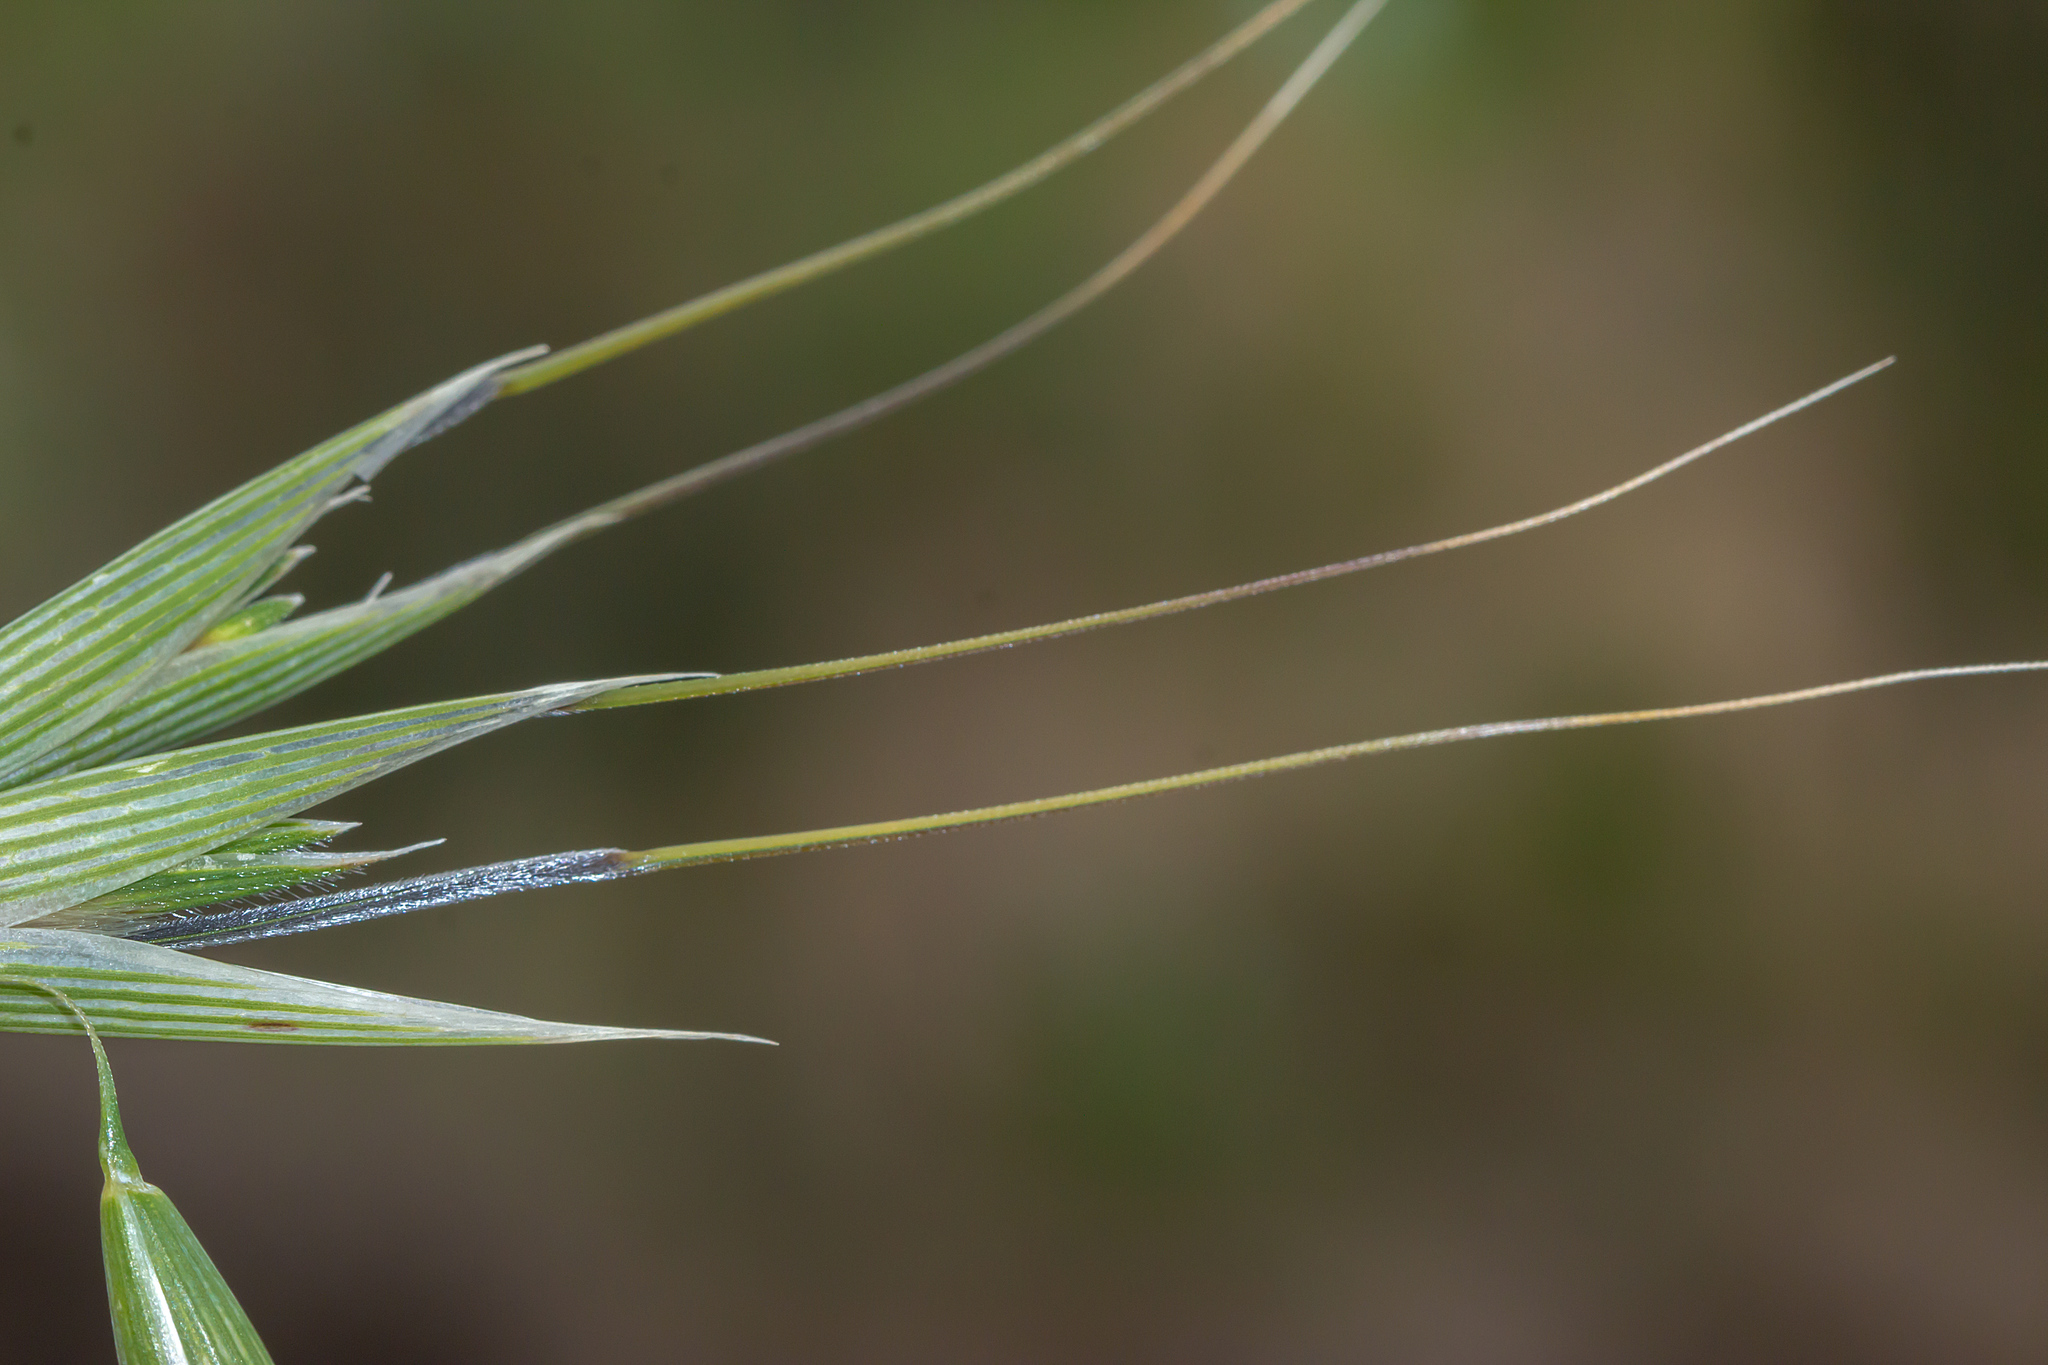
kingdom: Plantae
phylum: Tracheophyta
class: Liliopsida
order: Poales
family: Poaceae
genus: Avena
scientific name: Avena fatua
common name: Wild oat
